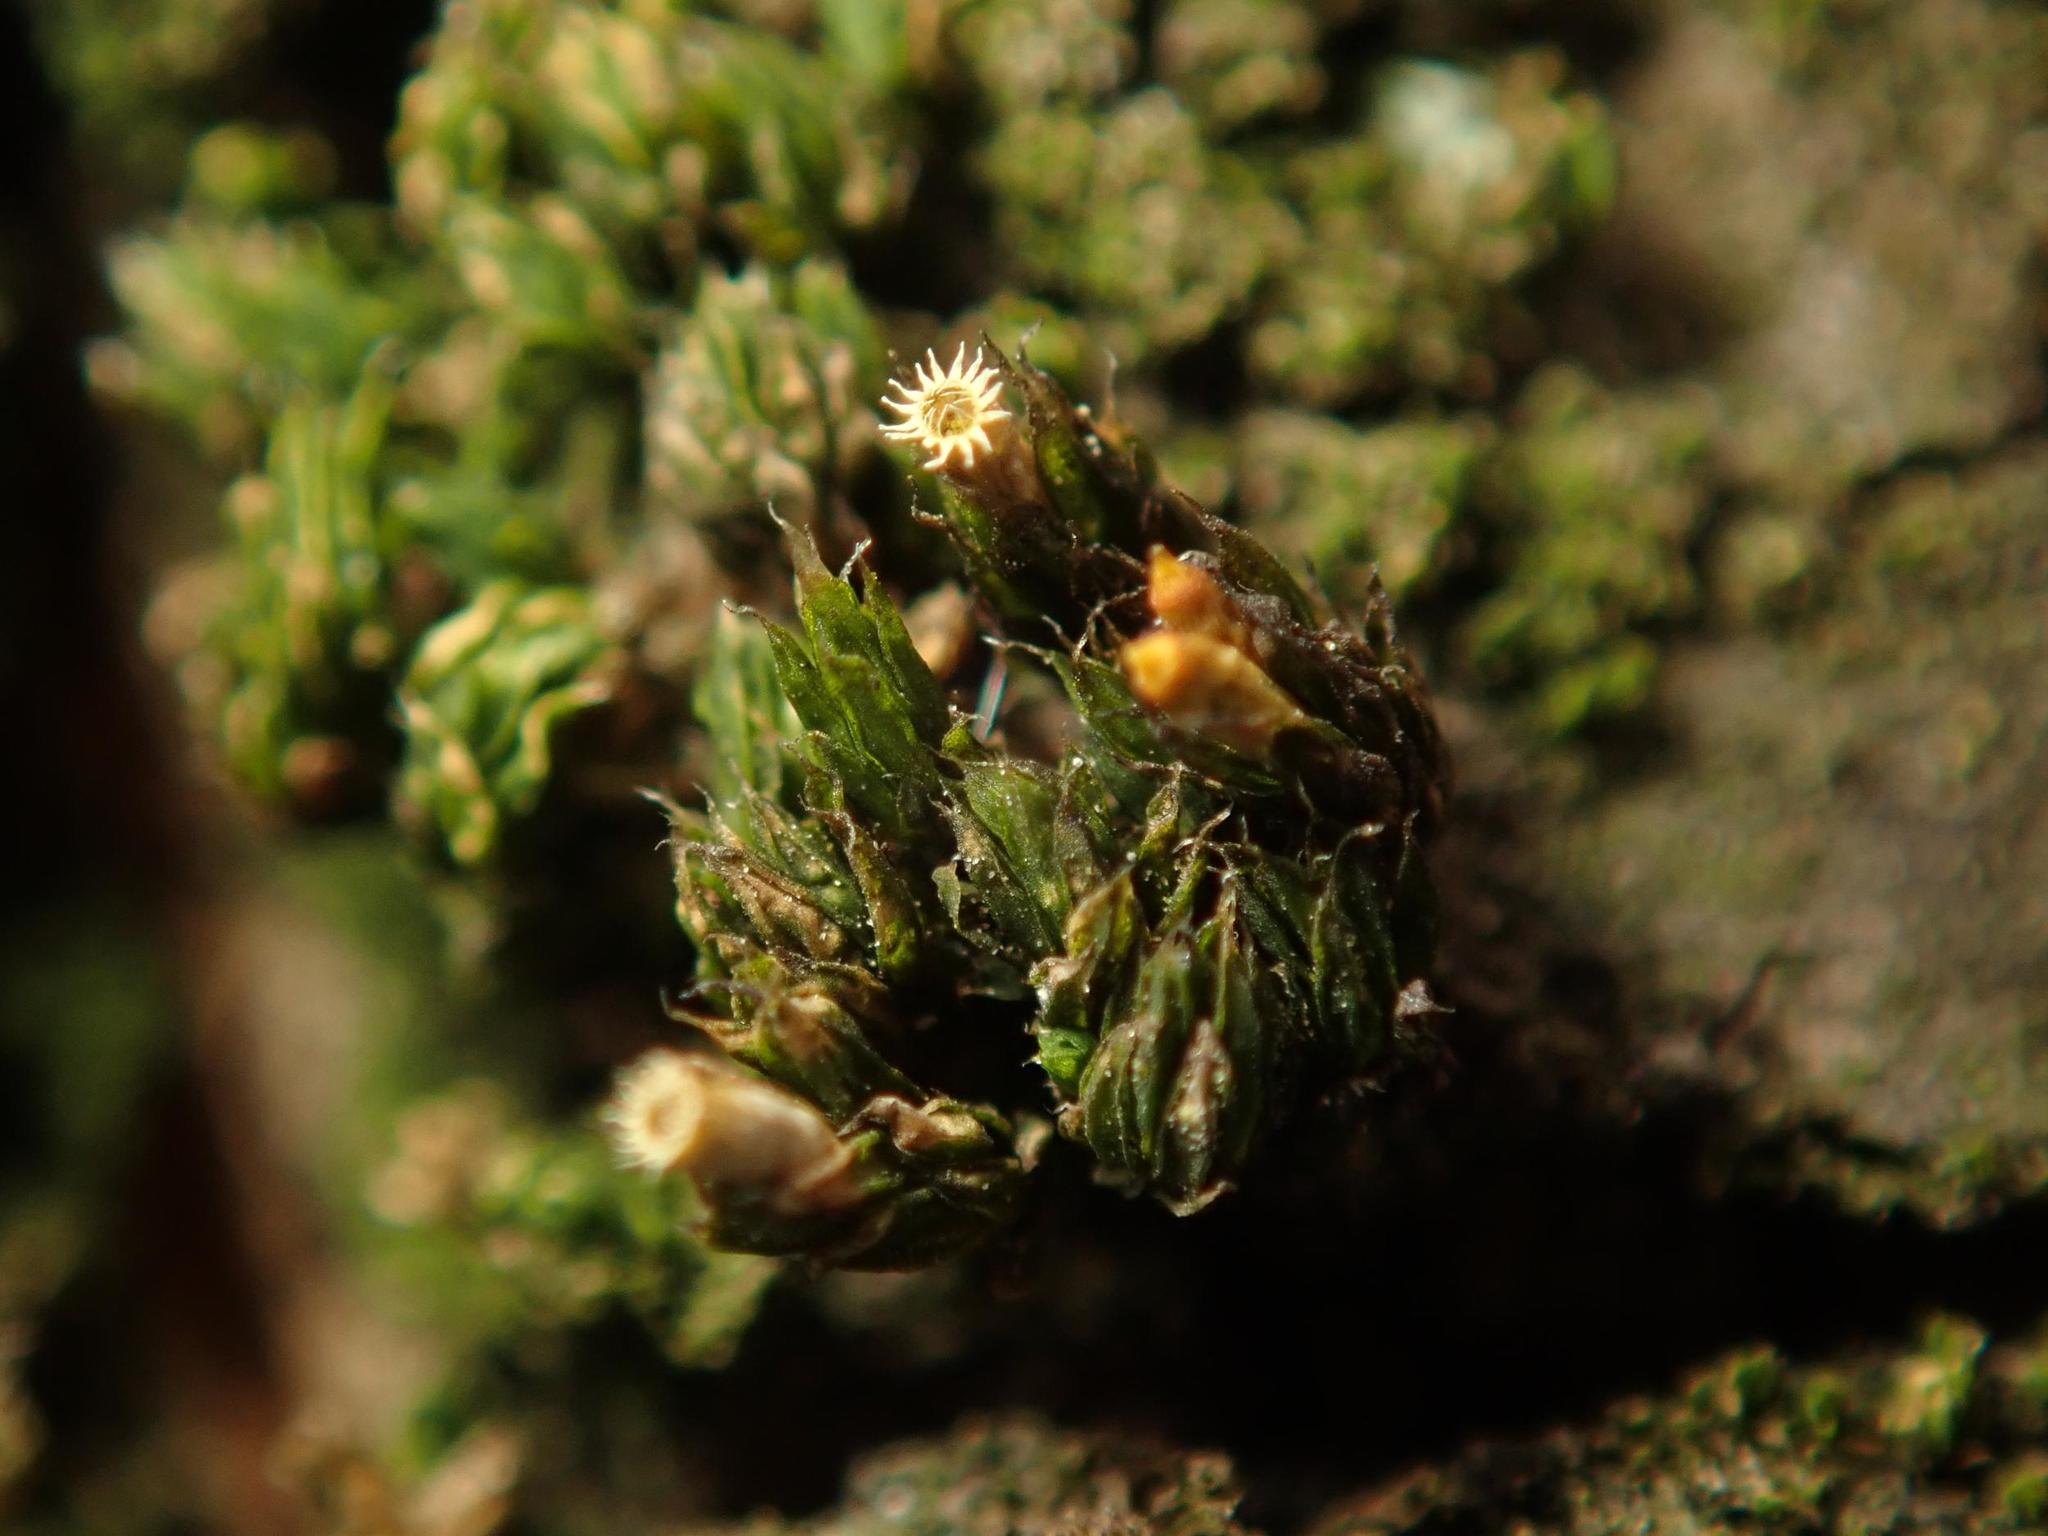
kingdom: Plantae
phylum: Bryophyta
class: Bryopsida
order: Orthotrichales
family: Orthotrichaceae
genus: Orthotrichum
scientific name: Orthotrichum diaphanum
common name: White-tipped bristle-moss
